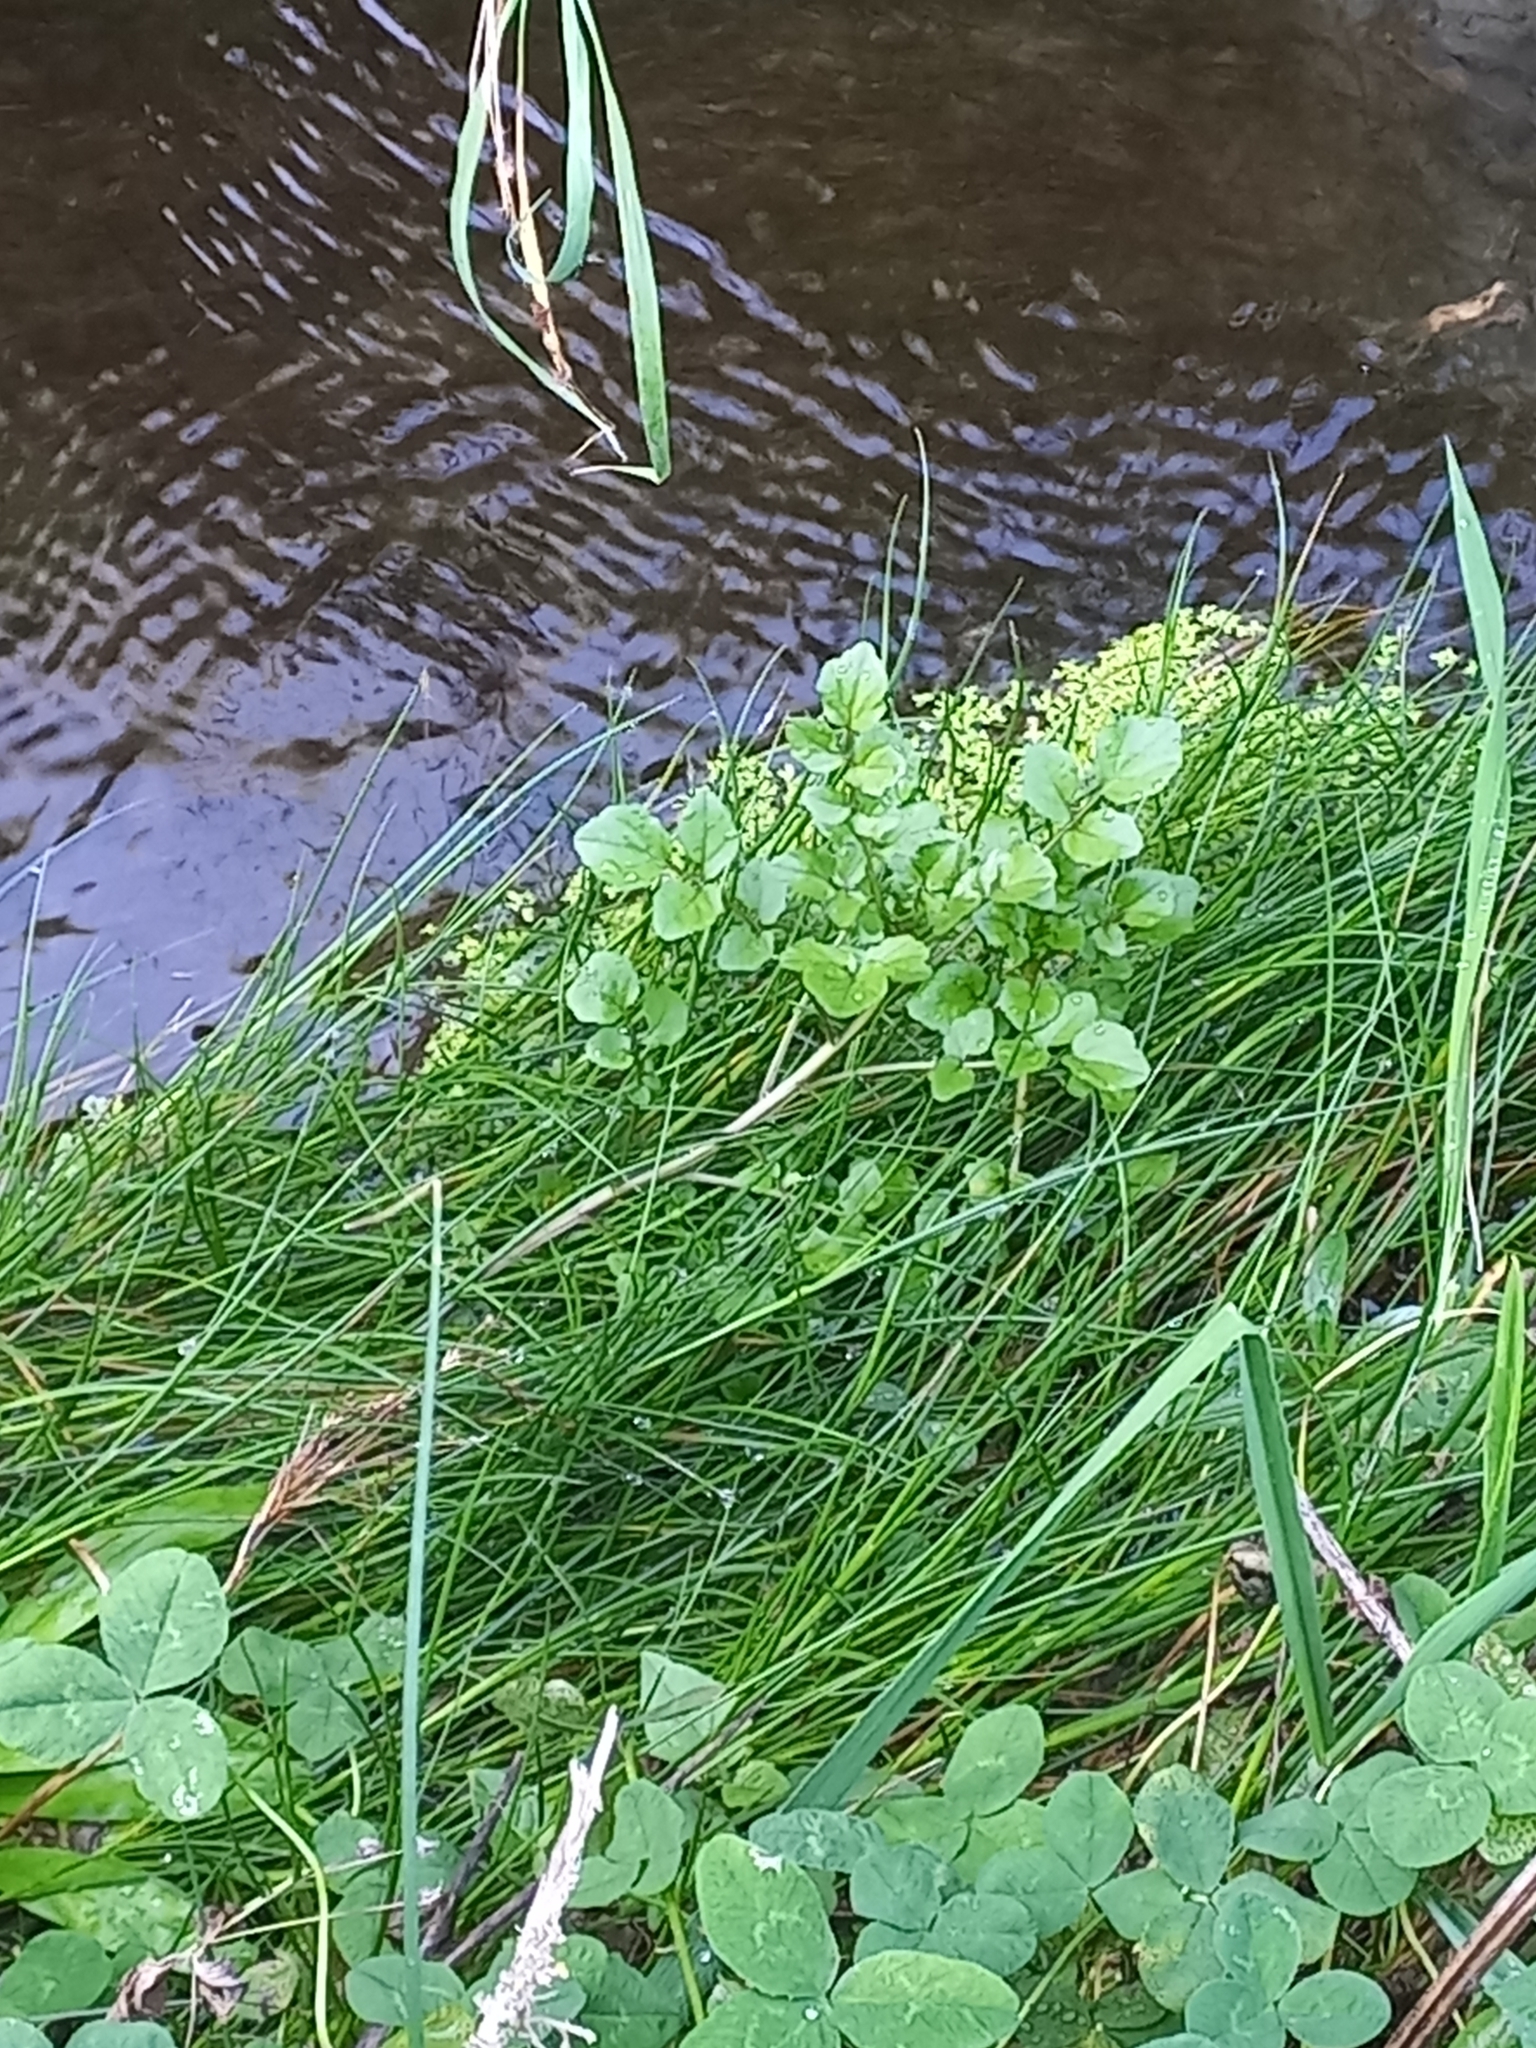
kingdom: Plantae
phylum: Tracheophyta
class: Magnoliopsida
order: Brassicales
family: Brassicaceae
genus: Nasturtium
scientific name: Nasturtium officinale
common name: Watercress
